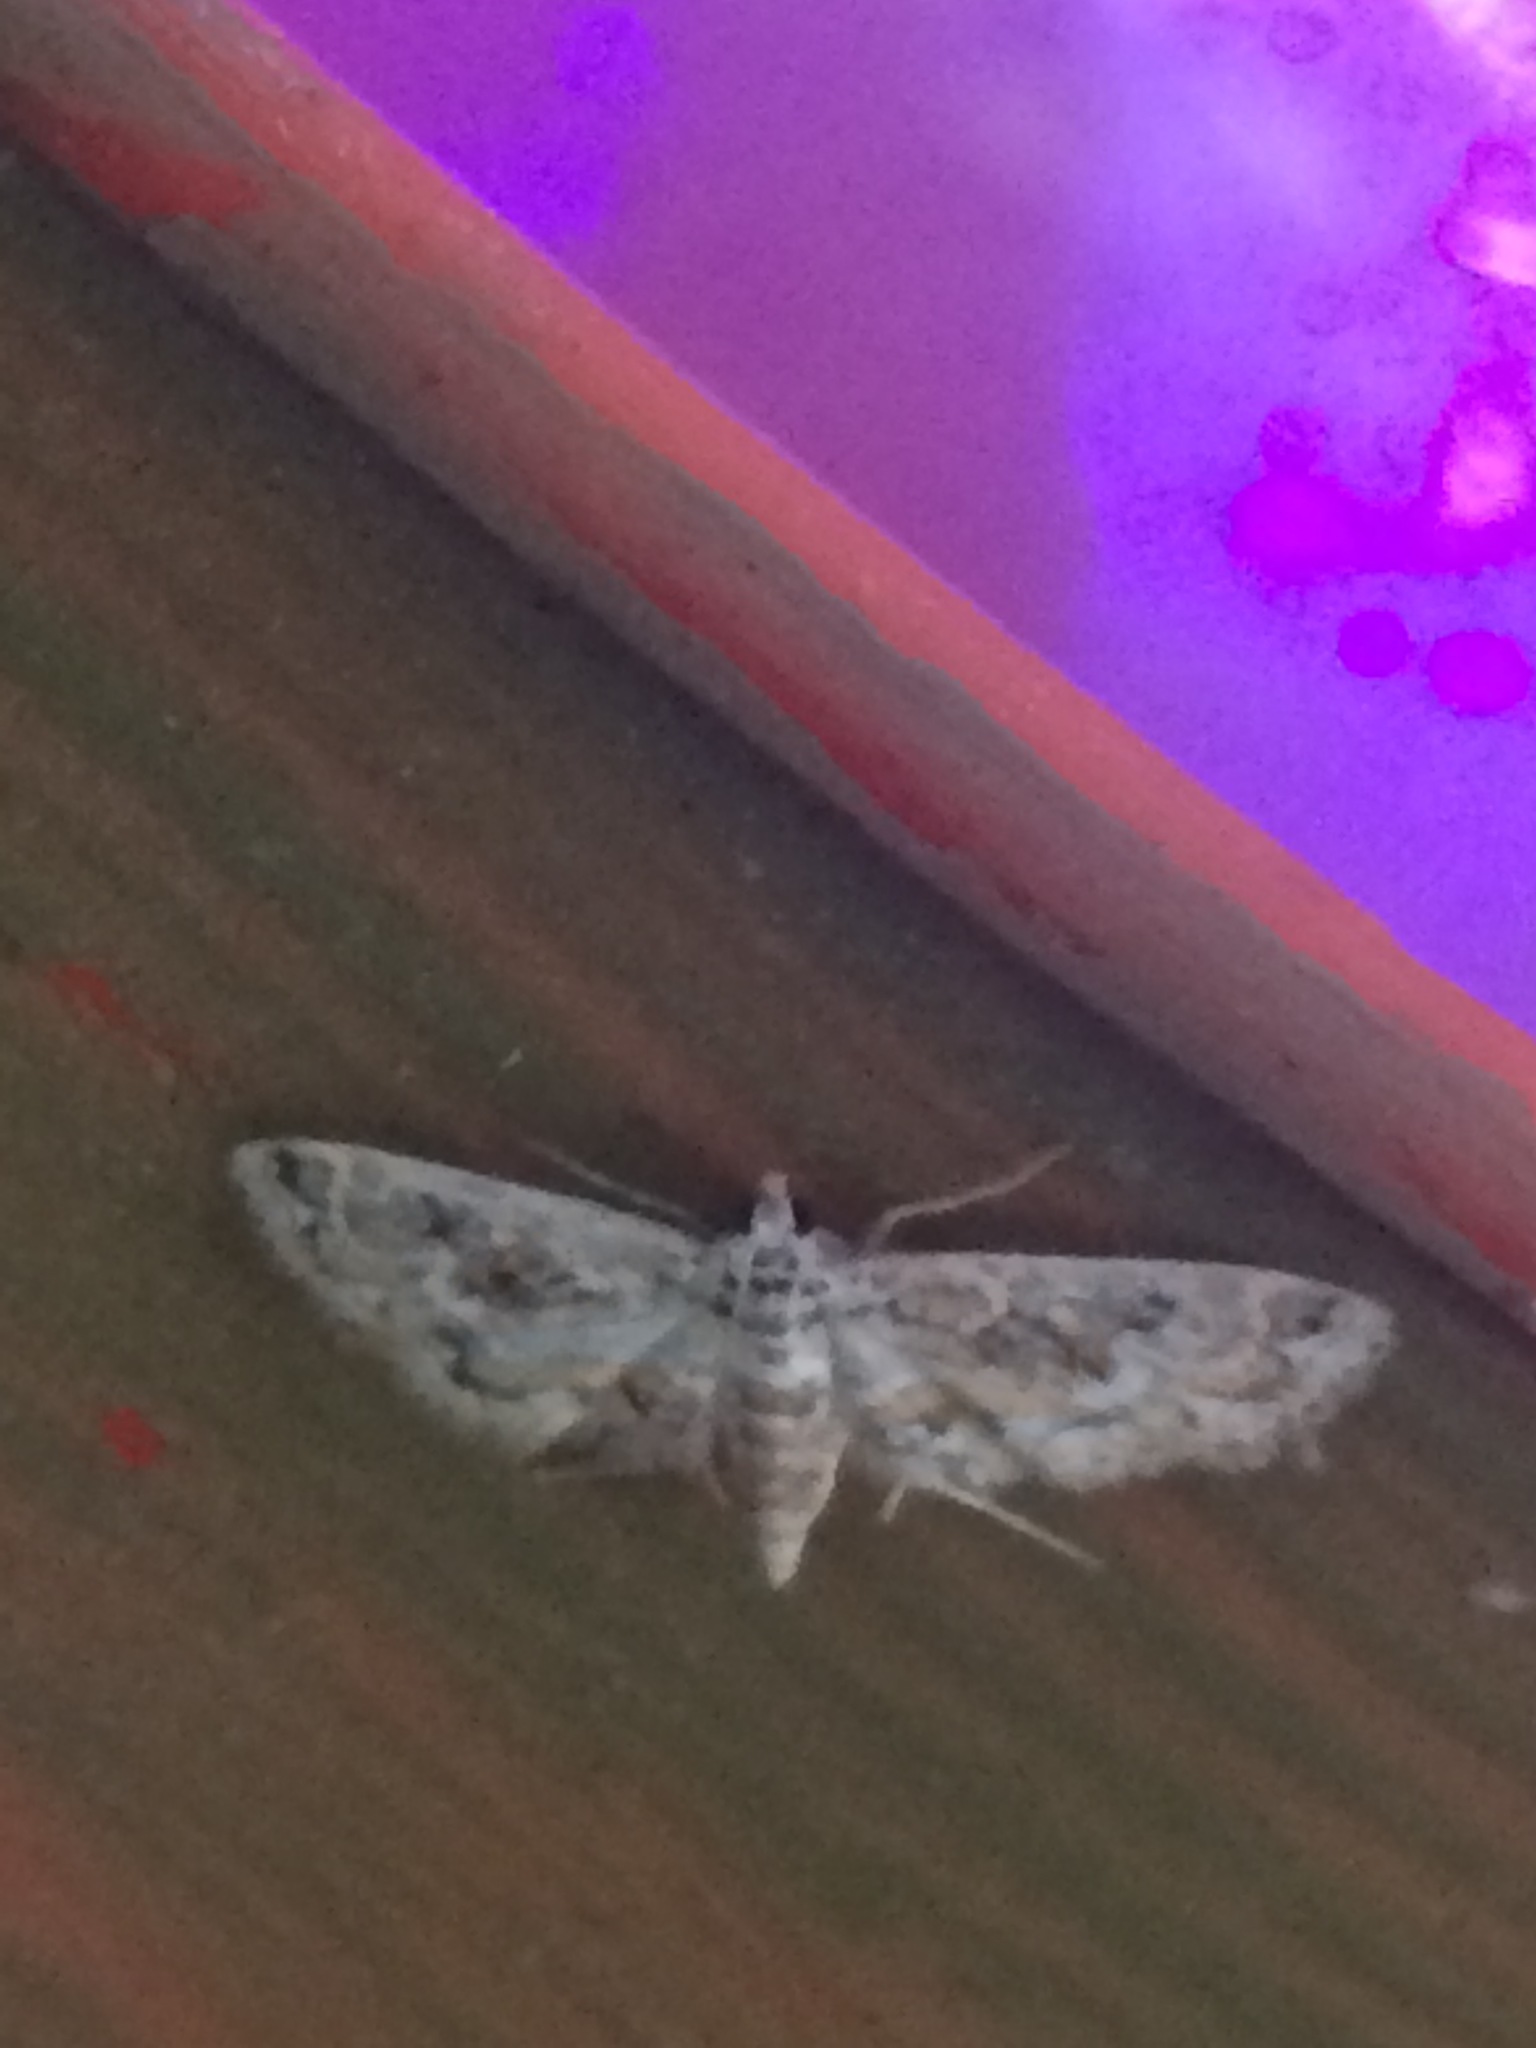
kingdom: Animalia
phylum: Arthropoda
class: Insecta
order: Lepidoptera
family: Crambidae
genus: Parapoynx
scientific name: Parapoynx allionealis
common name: Bladderwort casemaker
